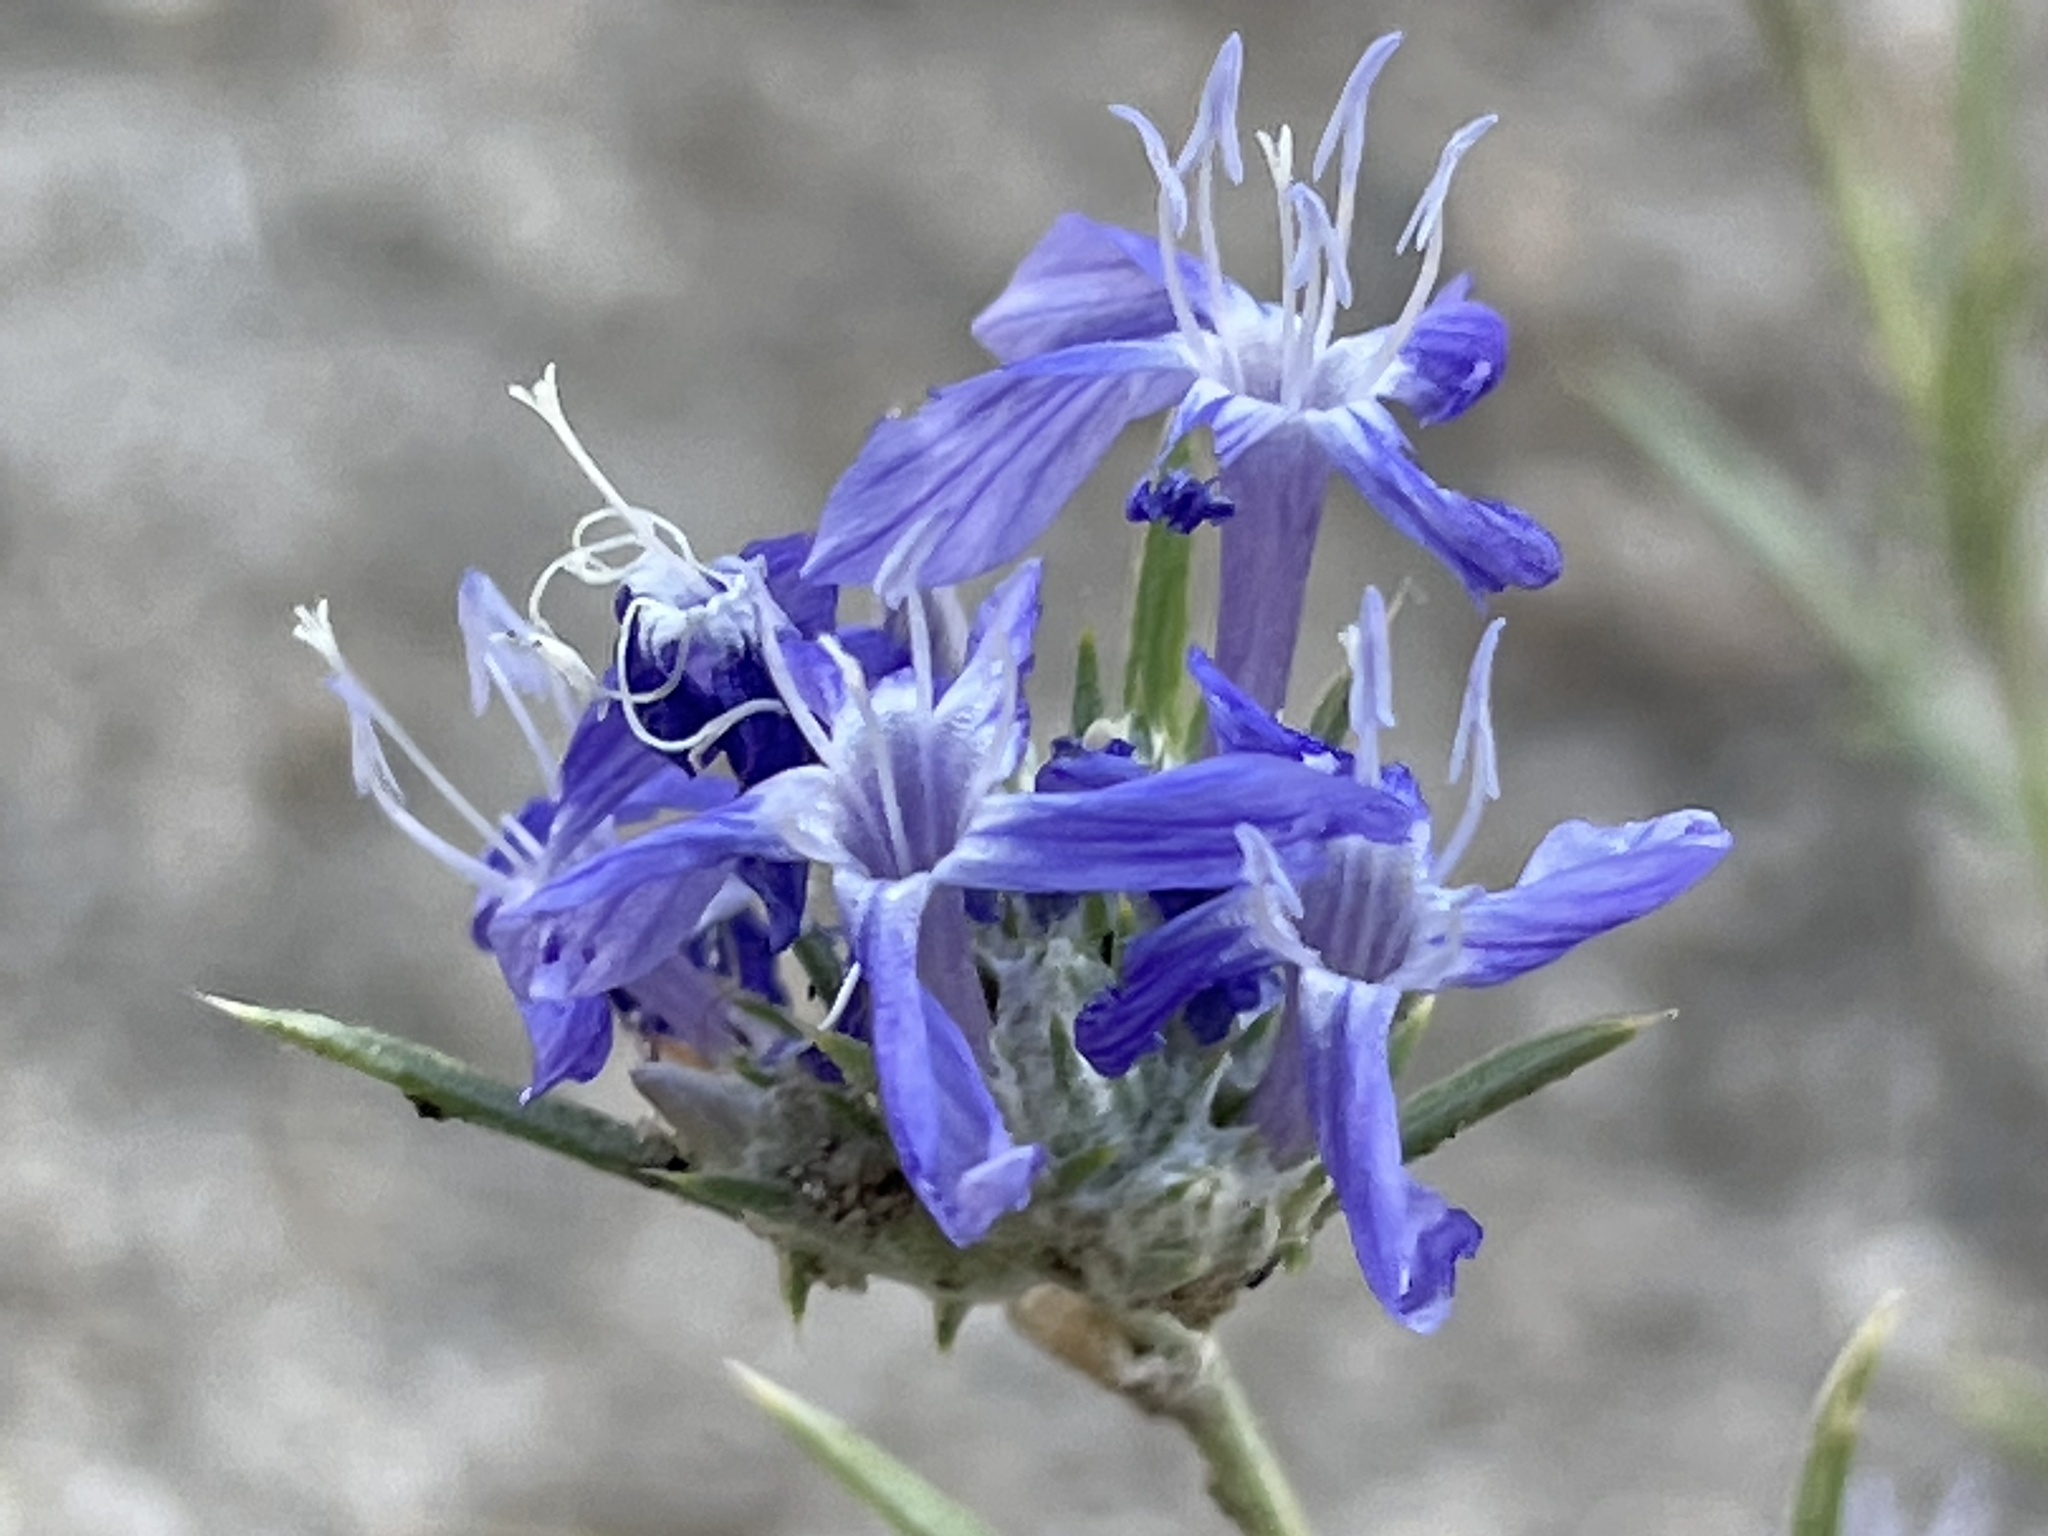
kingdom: Plantae
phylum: Tracheophyta
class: Magnoliopsida
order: Ericales
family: Polemoniaceae
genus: Eriastrum
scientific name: Eriastrum densifolium
